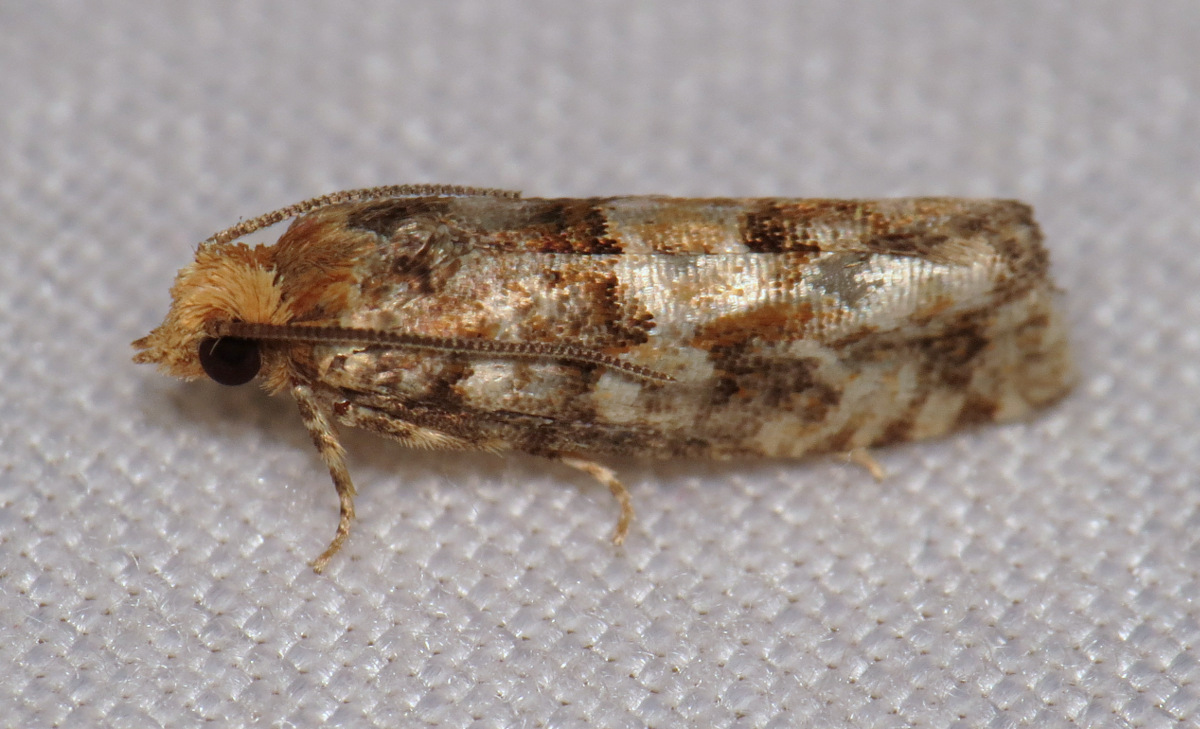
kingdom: Animalia
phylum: Arthropoda
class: Insecta
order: Lepidoptera
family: Tortricidae
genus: Eucopina
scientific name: Eucopina tocullionana
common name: White pinecone borer moth
